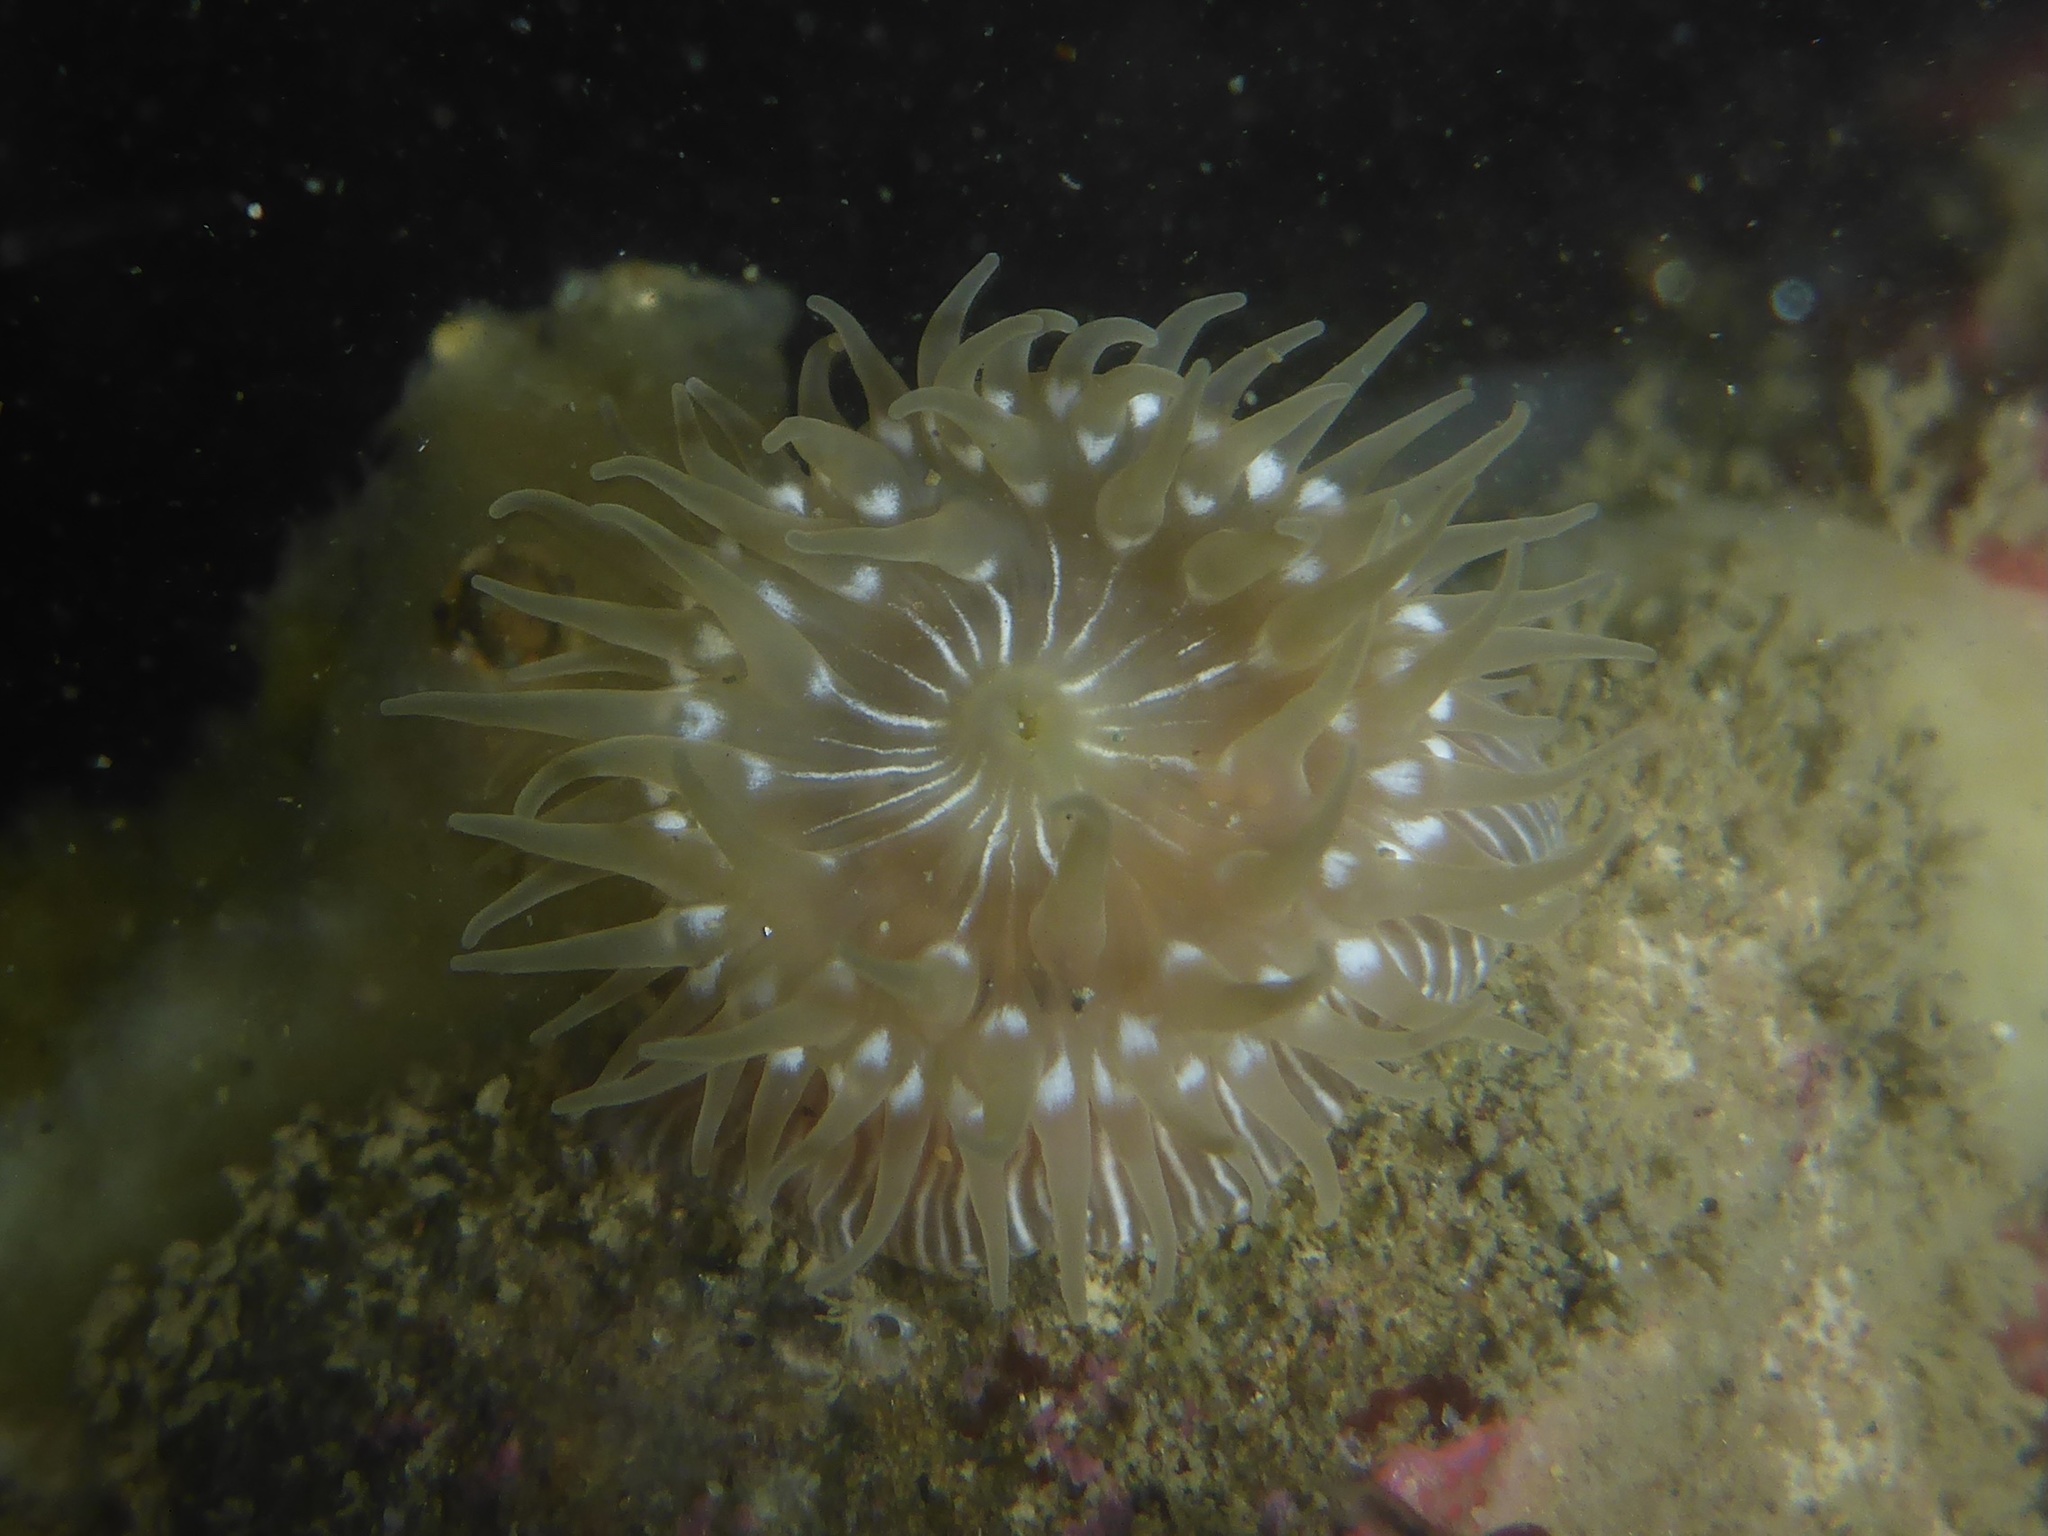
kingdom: Animalia
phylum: Cnidaria
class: Anthozoa
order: Actiniaria
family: Actiniidae
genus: Epiactis
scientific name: Epiactis prolifera
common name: Brooding anemone
